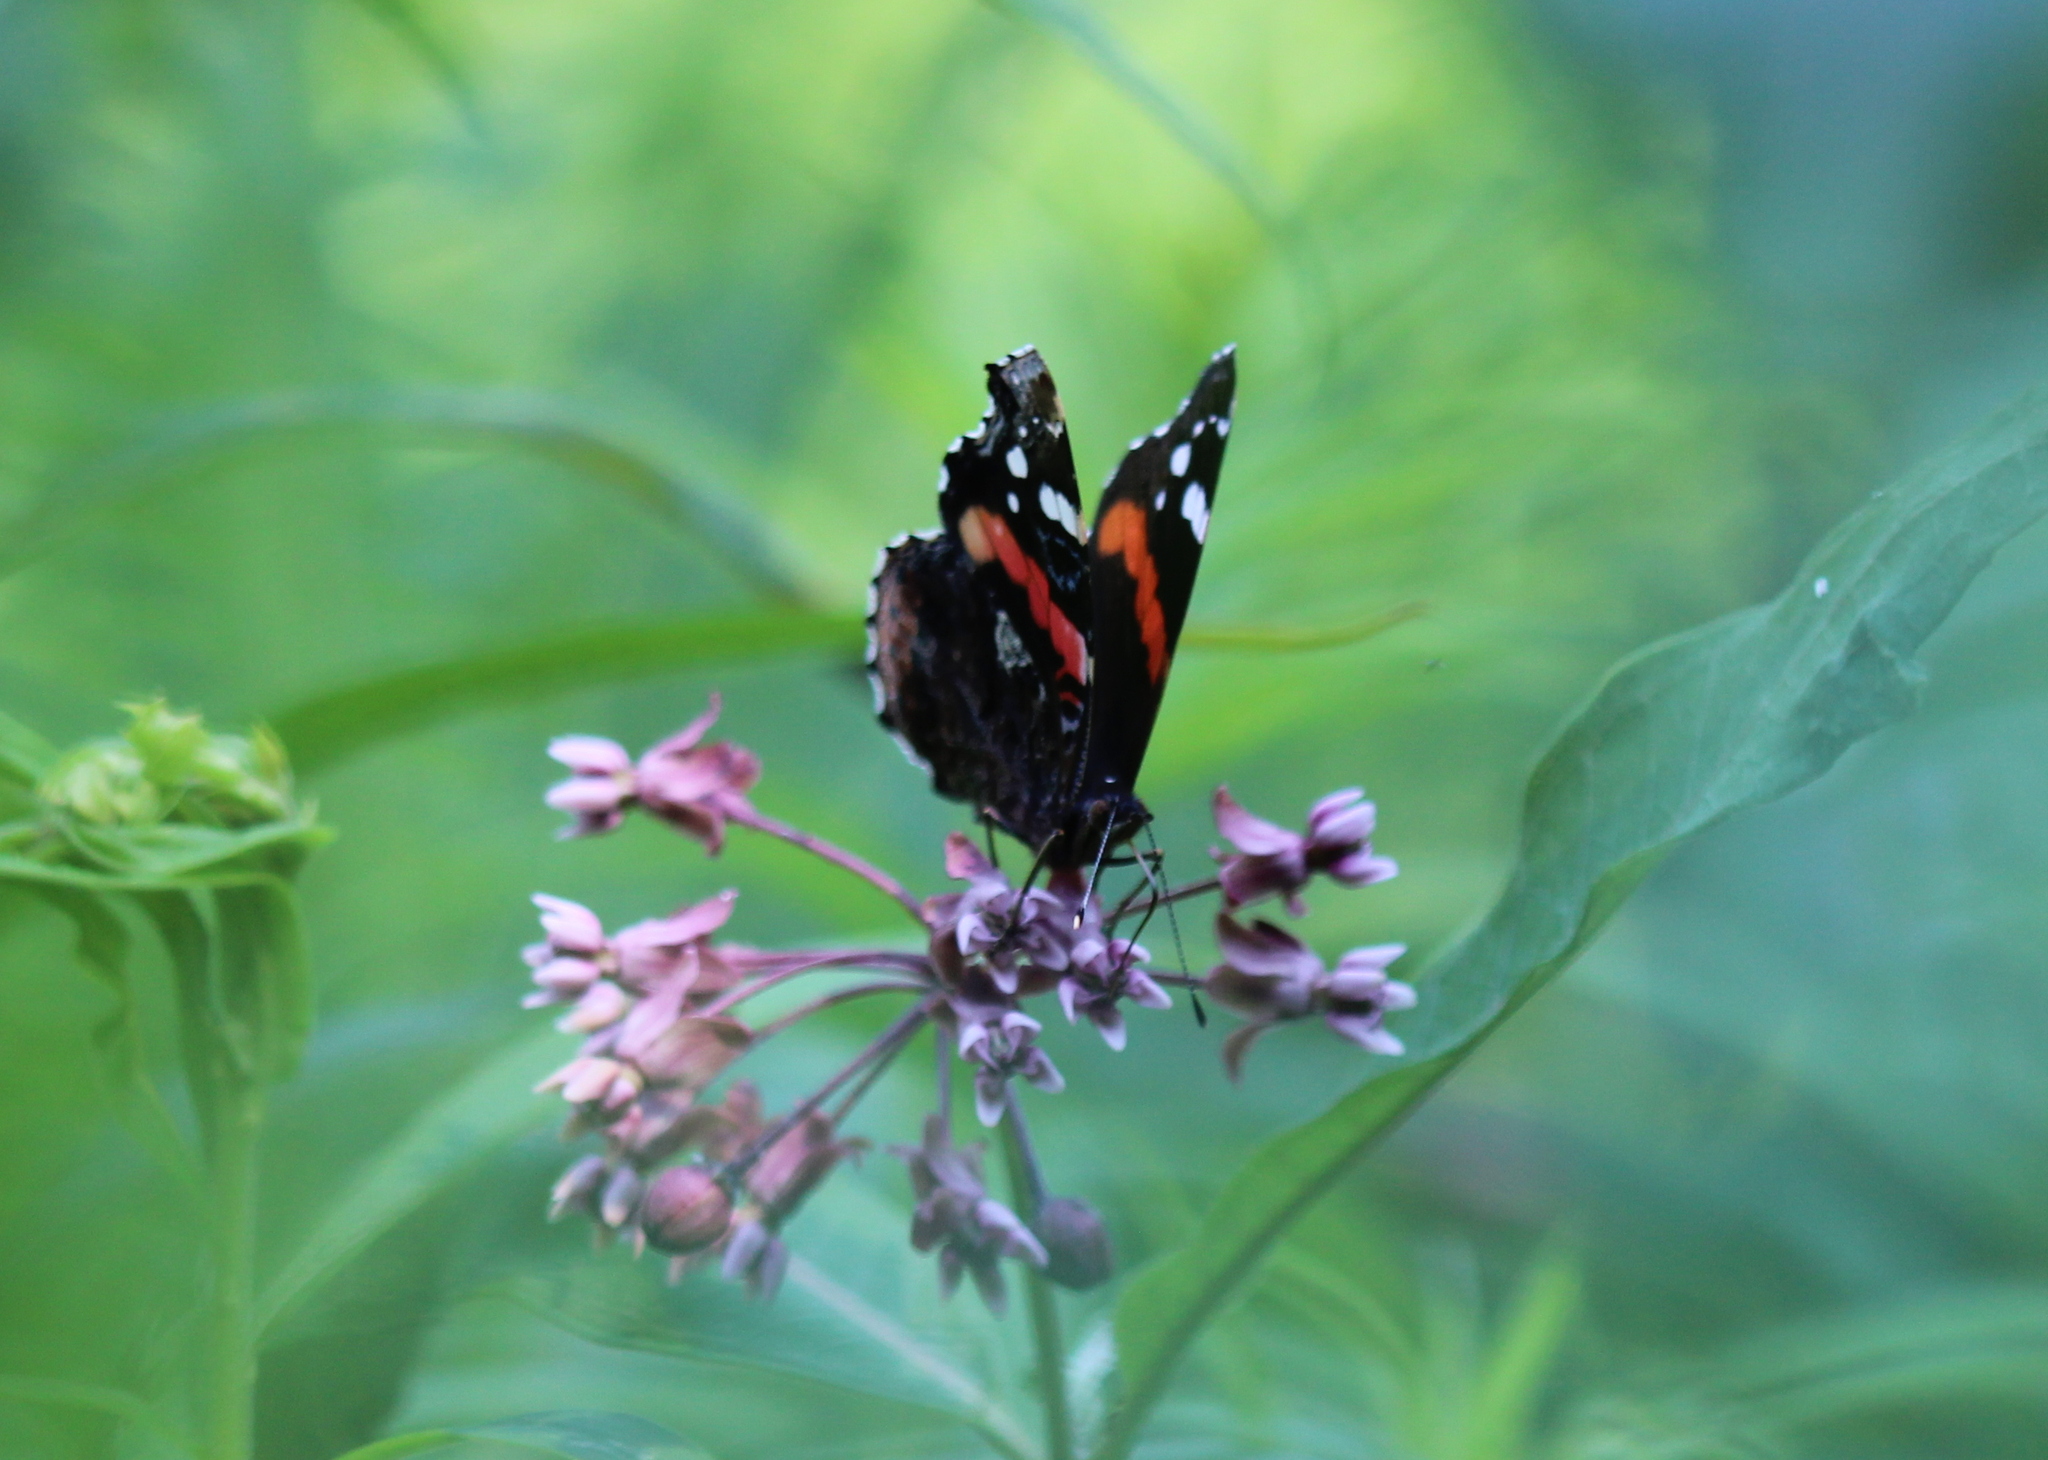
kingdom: Animalia
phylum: Arthropoda
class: Insecta
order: Lepidoptera
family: Nymphalidae
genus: Vanessa
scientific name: Vanessa atalanta
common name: Red admiral
